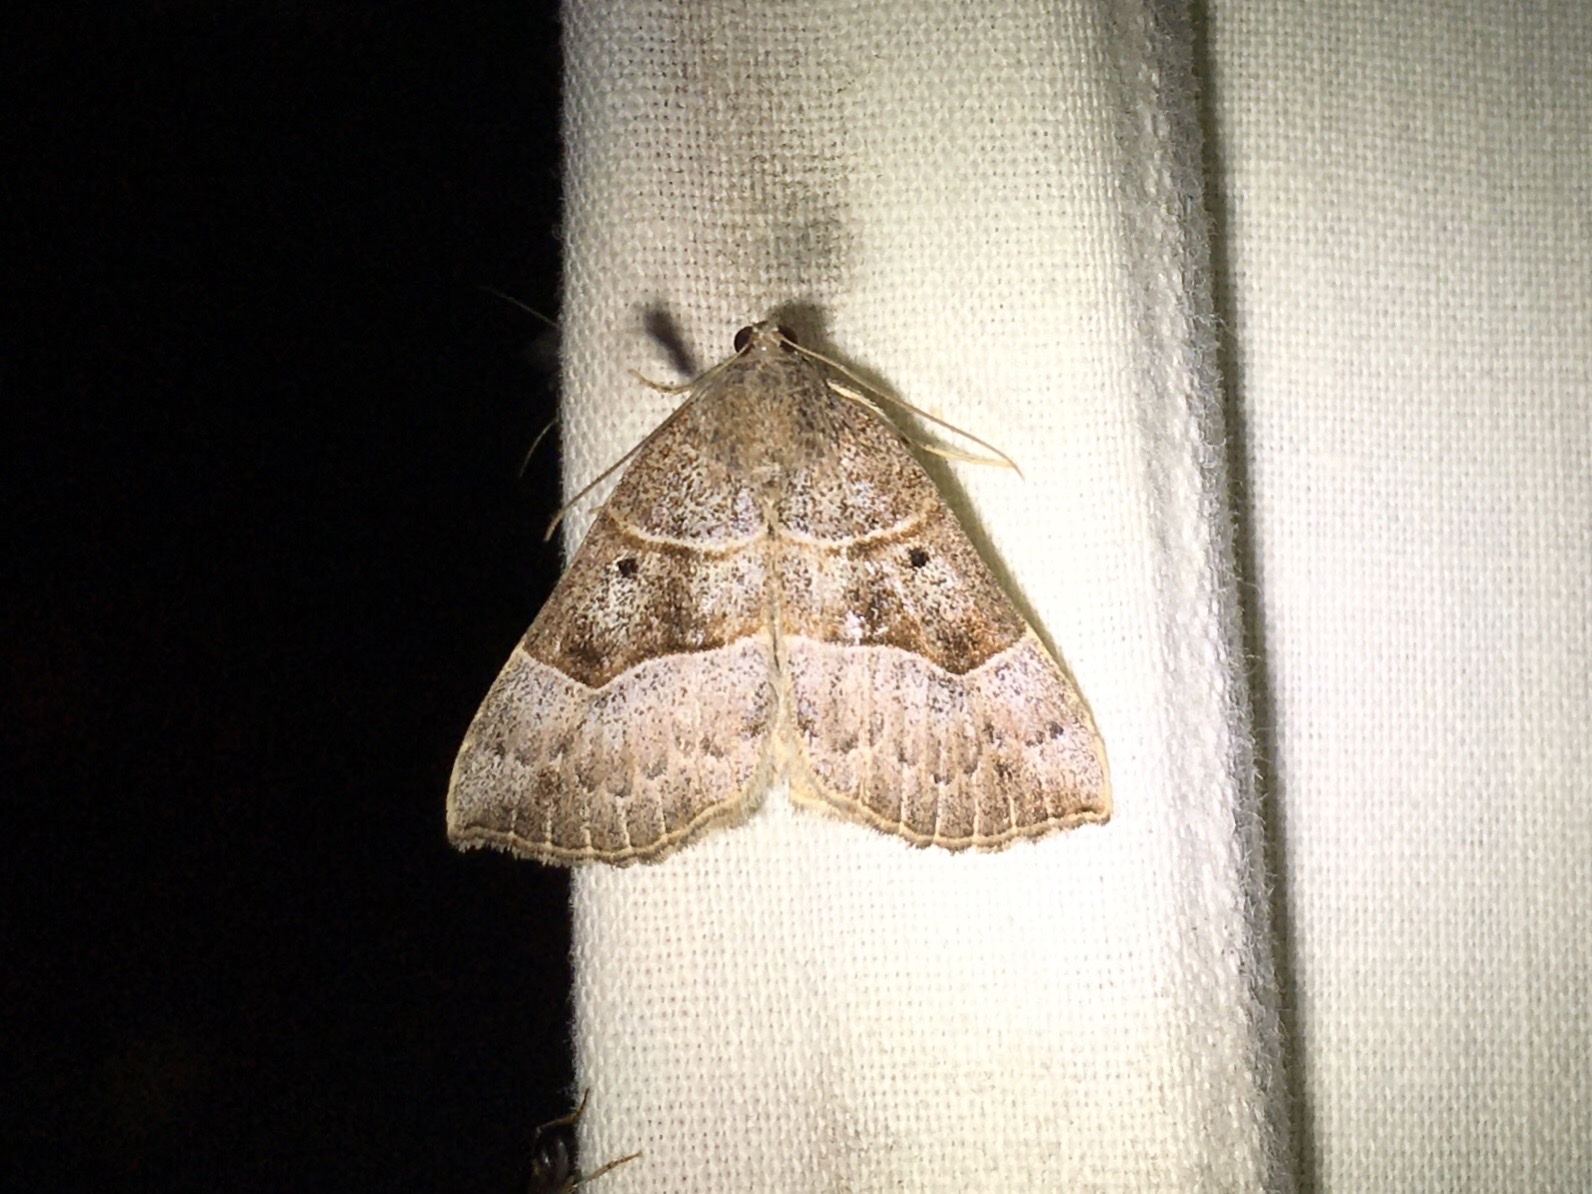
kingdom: Animalia
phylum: Arthropoda
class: Insecta
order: Lepidoptera
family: Erebidae
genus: Hypena
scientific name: Hypena deceptalis
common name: Deceptive snout
